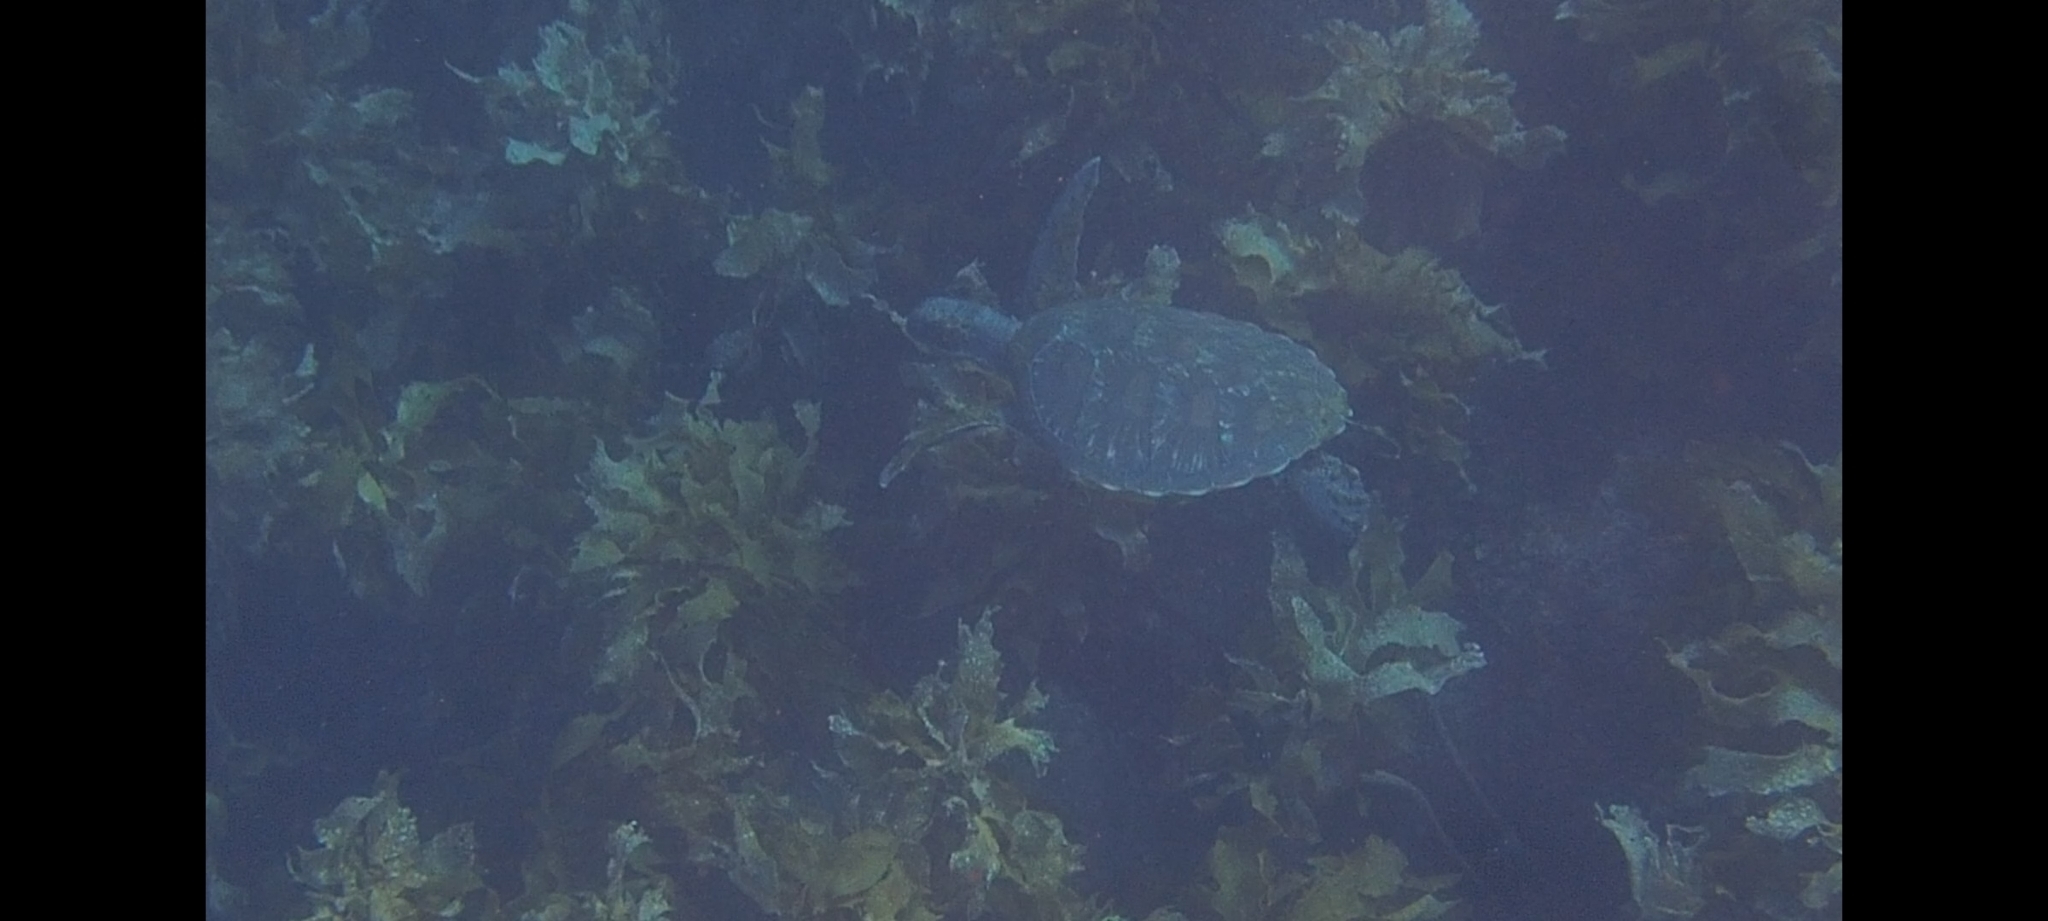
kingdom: Animalia
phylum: Chordata
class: Testudines
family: Cheloniidae
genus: Chelonia
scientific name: Chelonia mydas
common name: Green turtle
